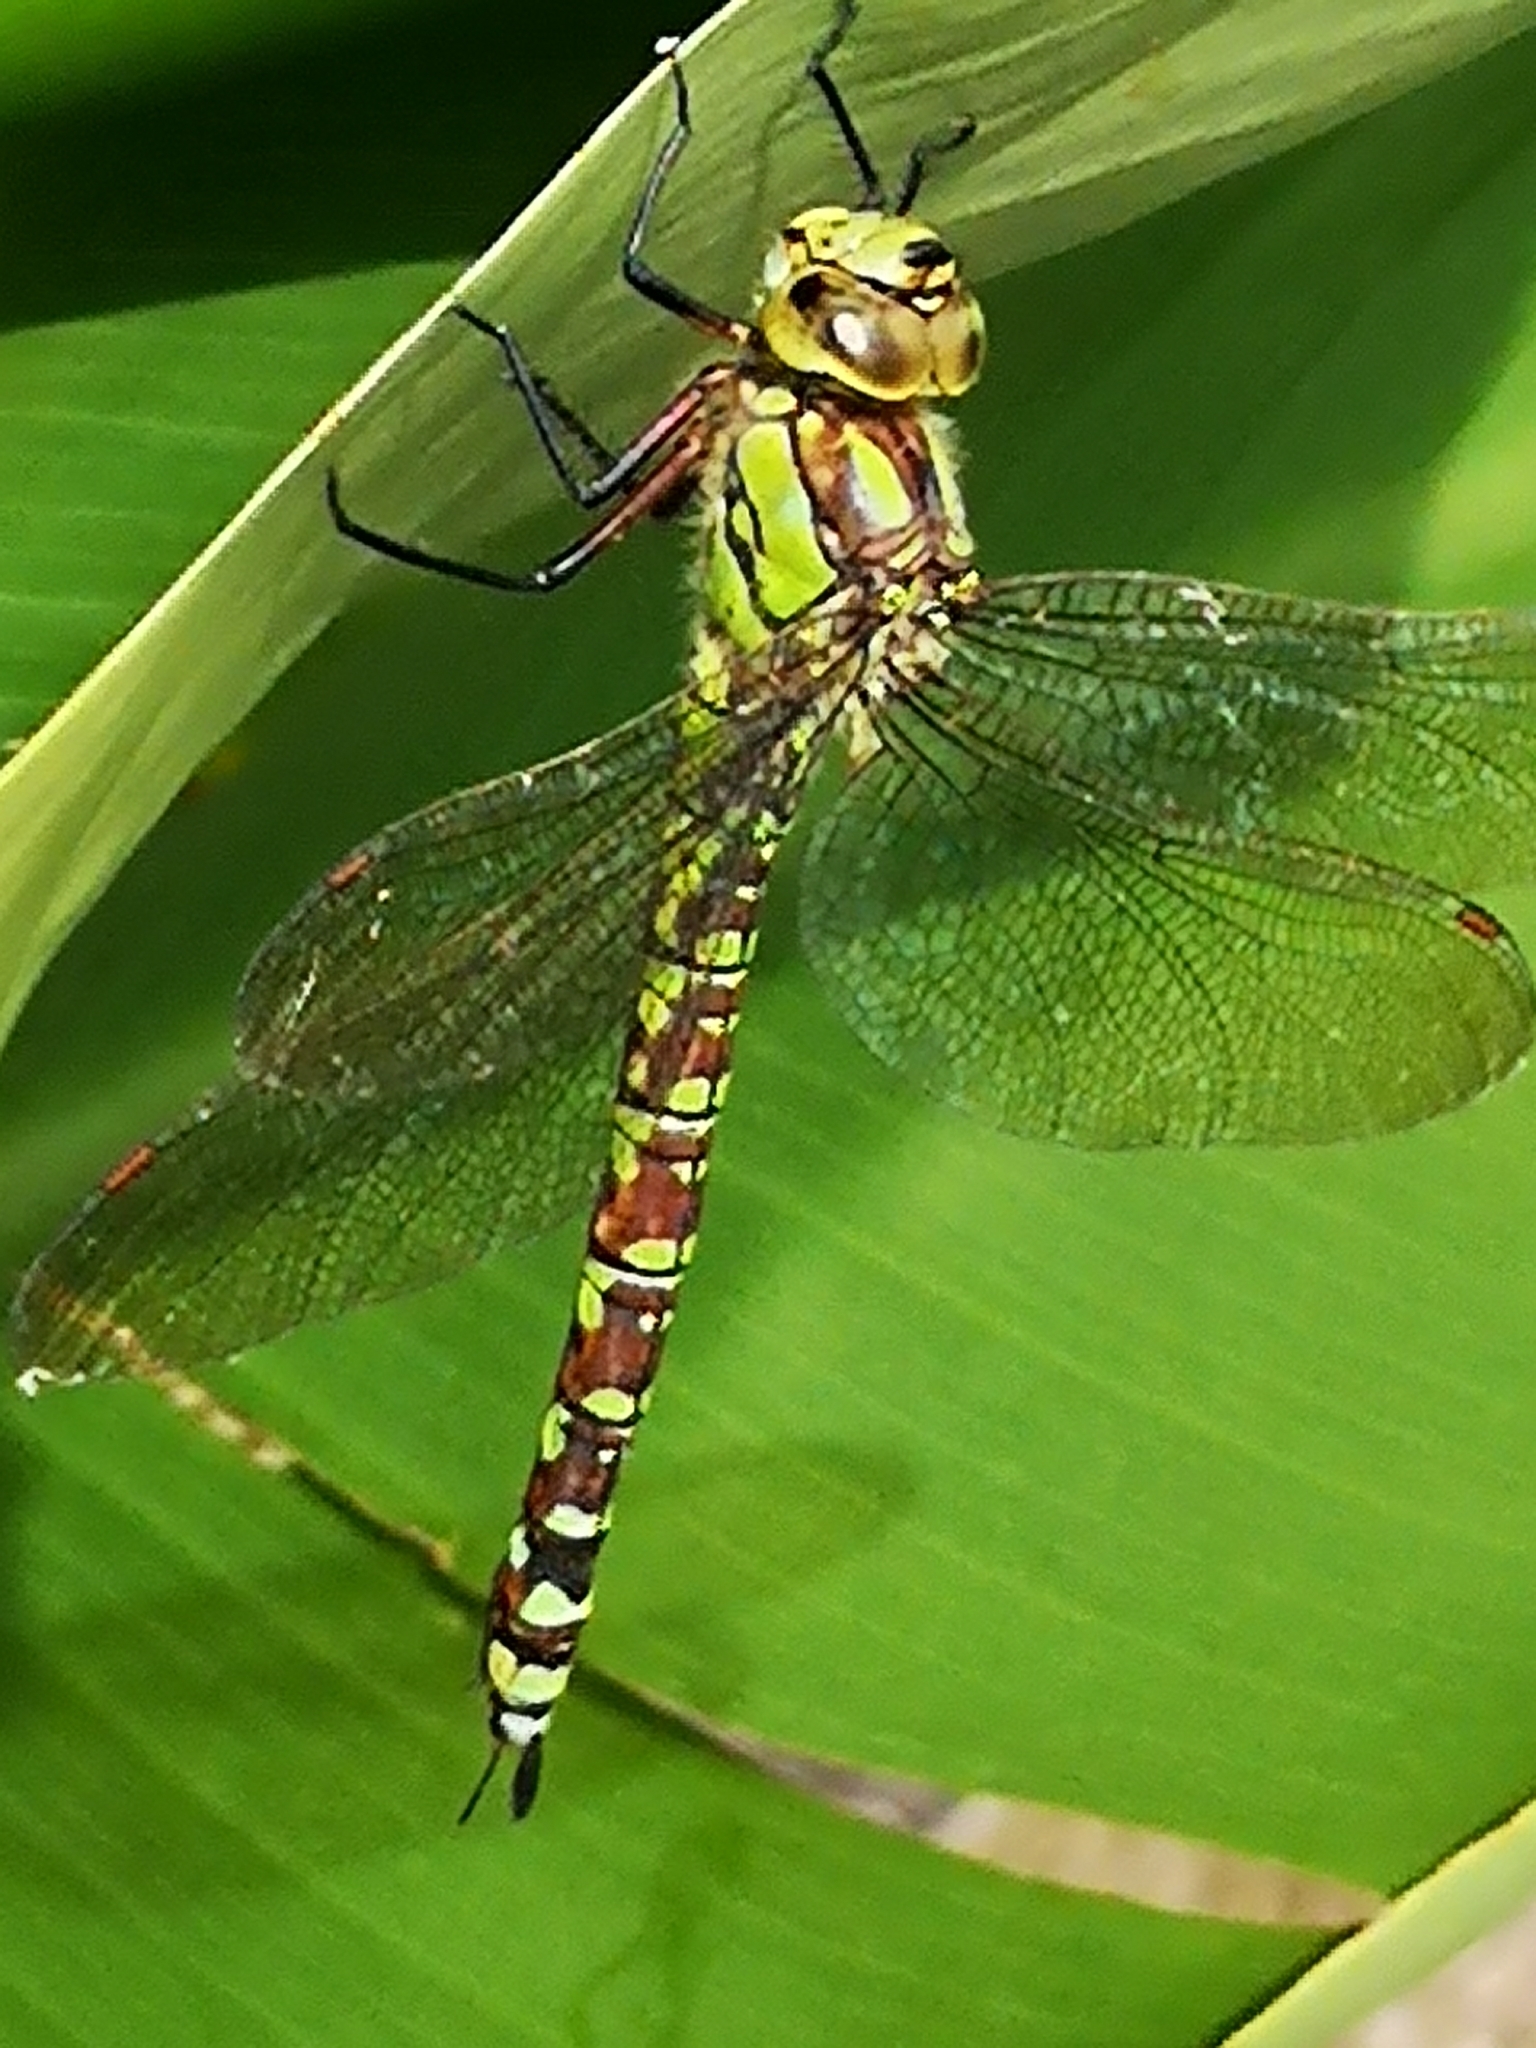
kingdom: Animalia
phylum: Arthropoda
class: Insecta
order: Odonata
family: Aeshnidae
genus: Aeshna
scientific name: Aeshna cyanea
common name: Southern hawker
